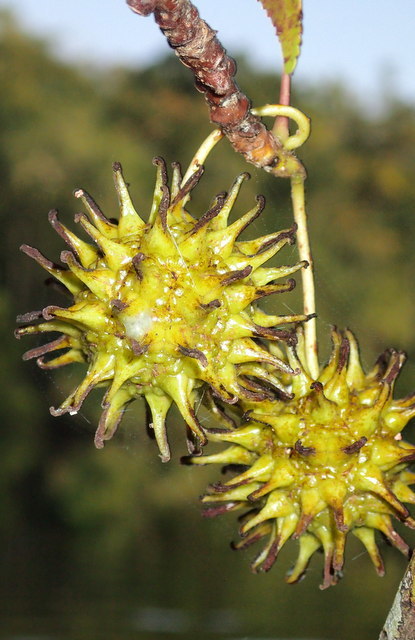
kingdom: Plantae
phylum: Tracheophyta
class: Magnoliopsida
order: Saxifragales
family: Altingiaceae
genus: Liquidambar
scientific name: Liquidambar styraciflua
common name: Sweet gum
